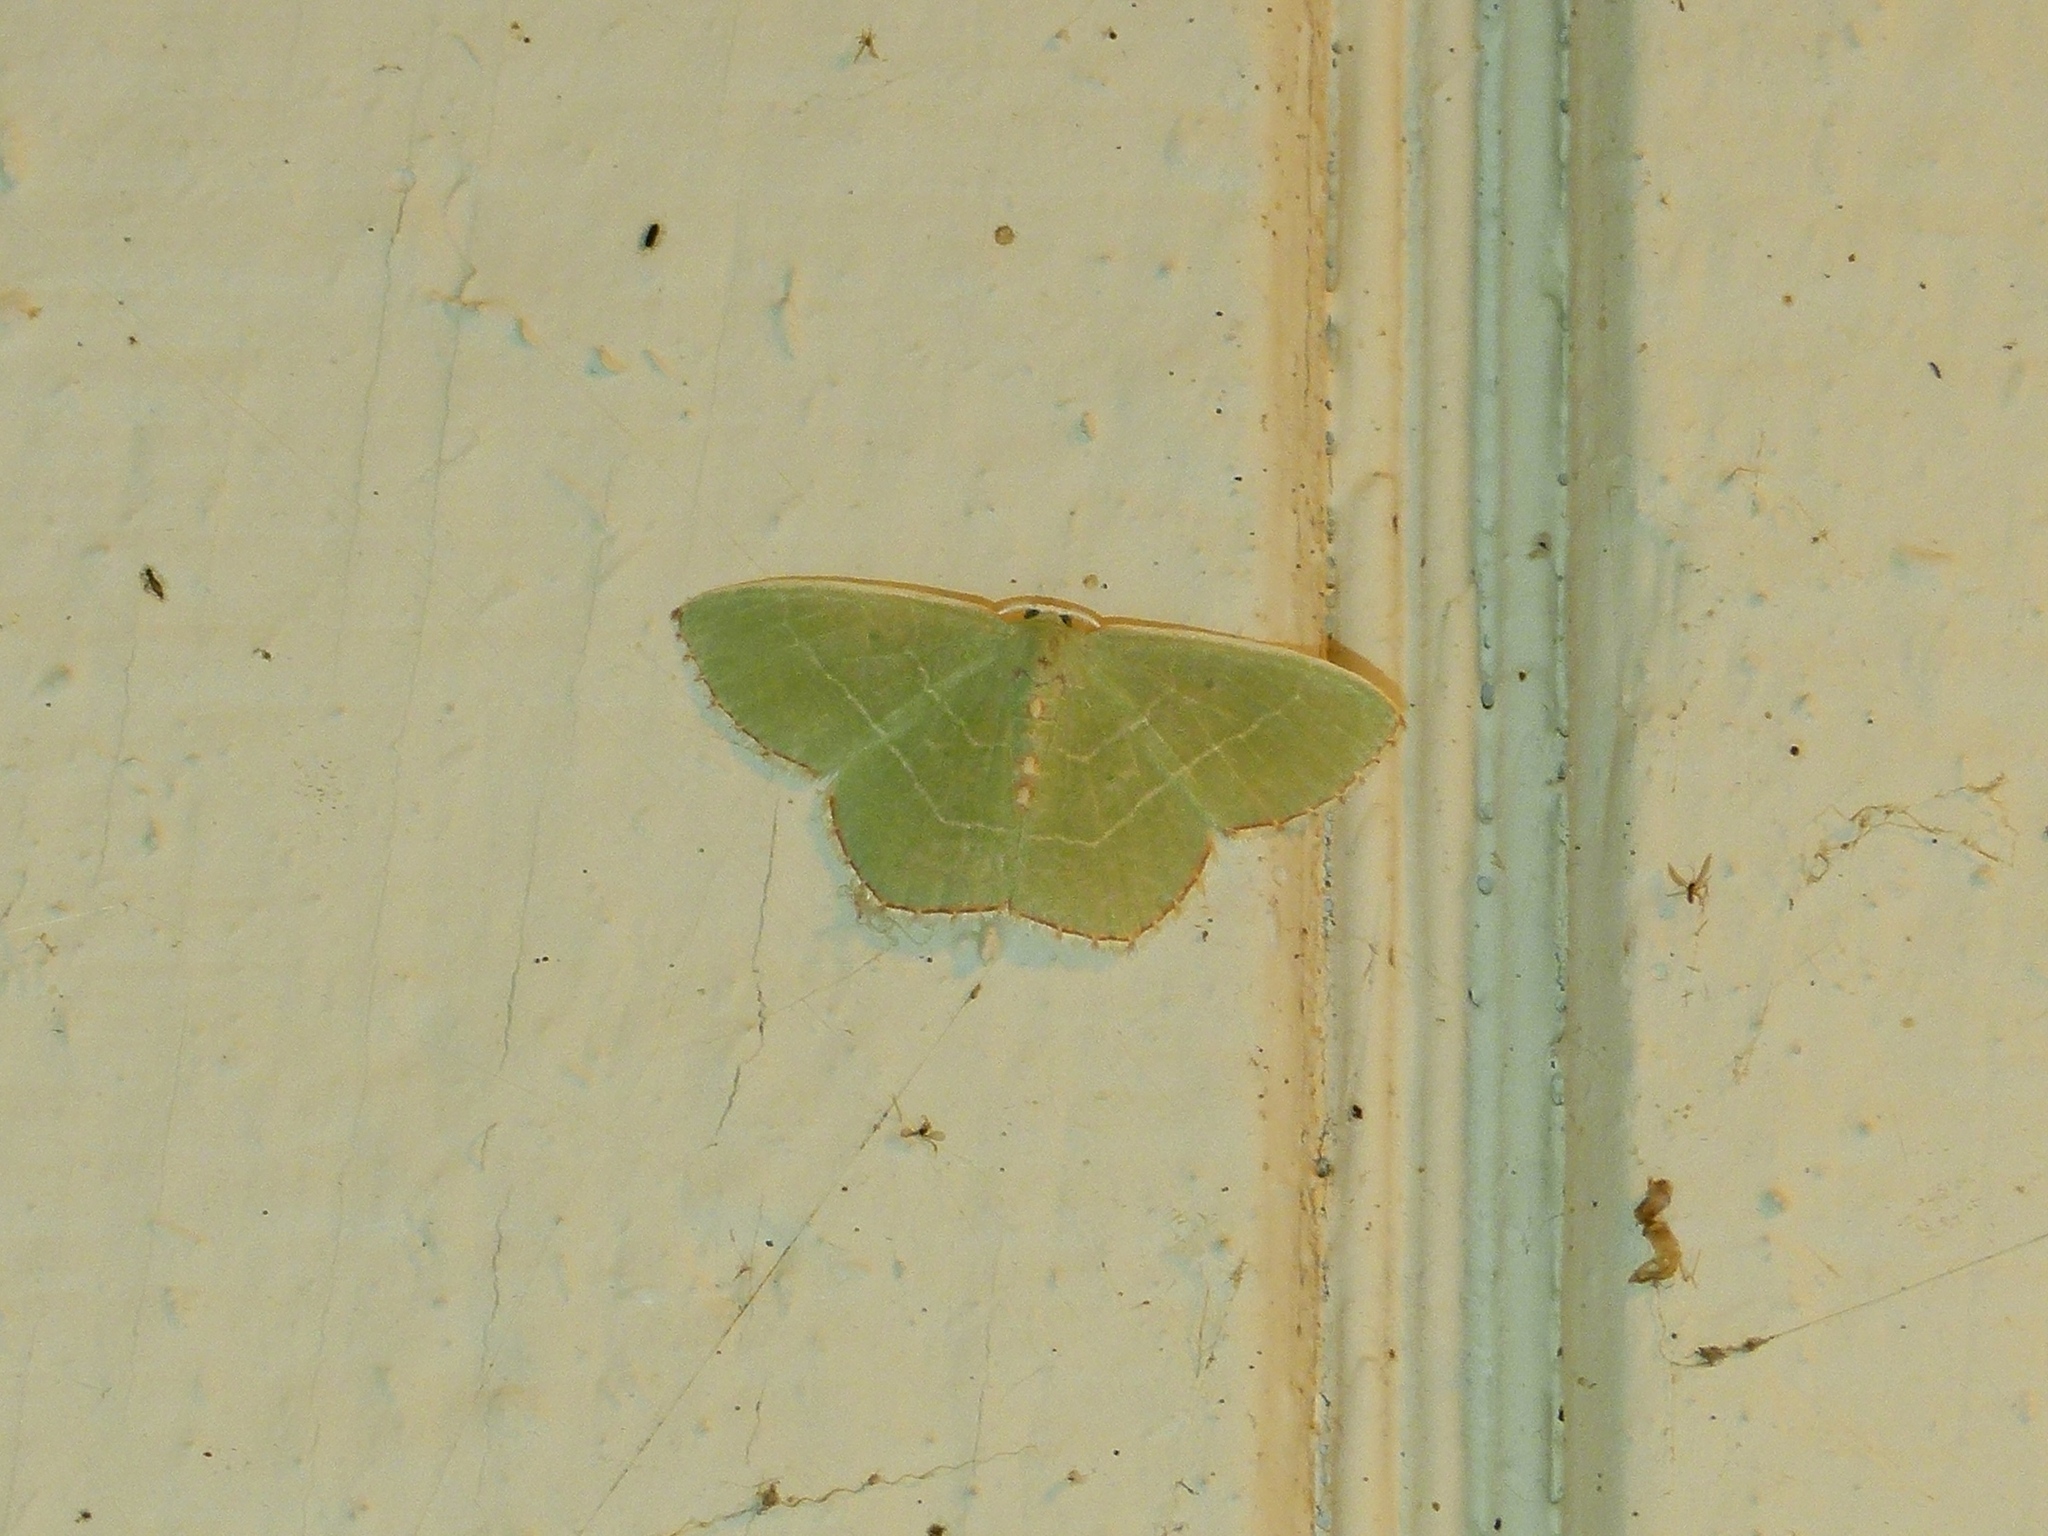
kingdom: Animalia
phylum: Arthropoda
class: Insecta
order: Lepidoptera
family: Geometridae
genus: Nemoria
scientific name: Nemoria bistriaria
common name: Red-fringed emerald
